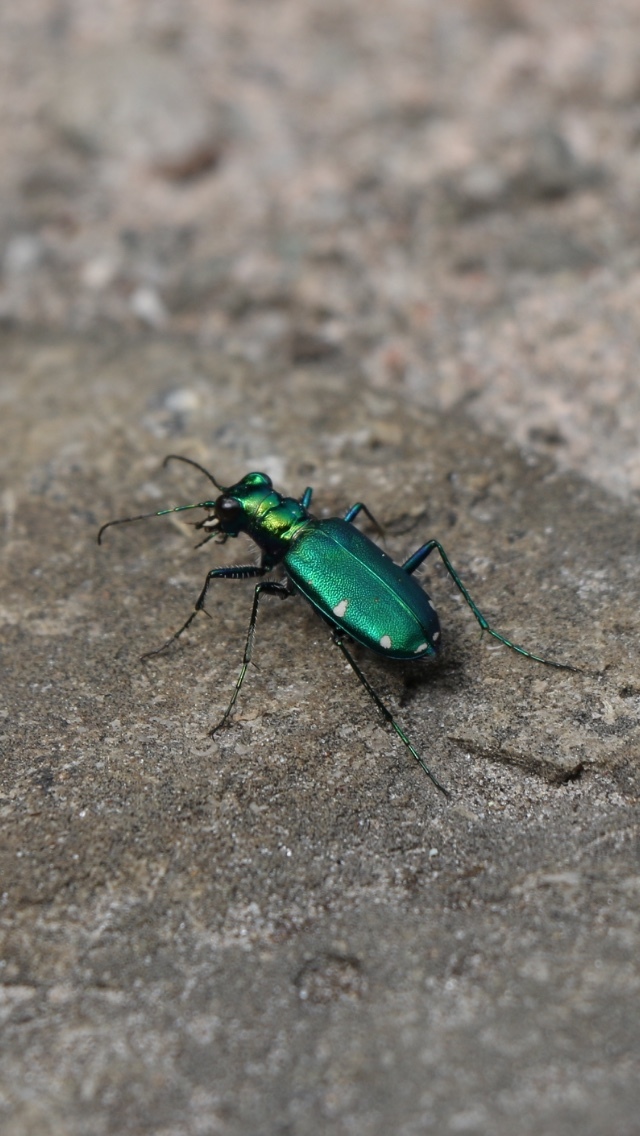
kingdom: Animalia
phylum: Arthropoda
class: Insecta
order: Coleoptera
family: Carabidae
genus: Cicindela
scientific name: Cicindela sexguttata
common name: Six-spotted tiger beetle
